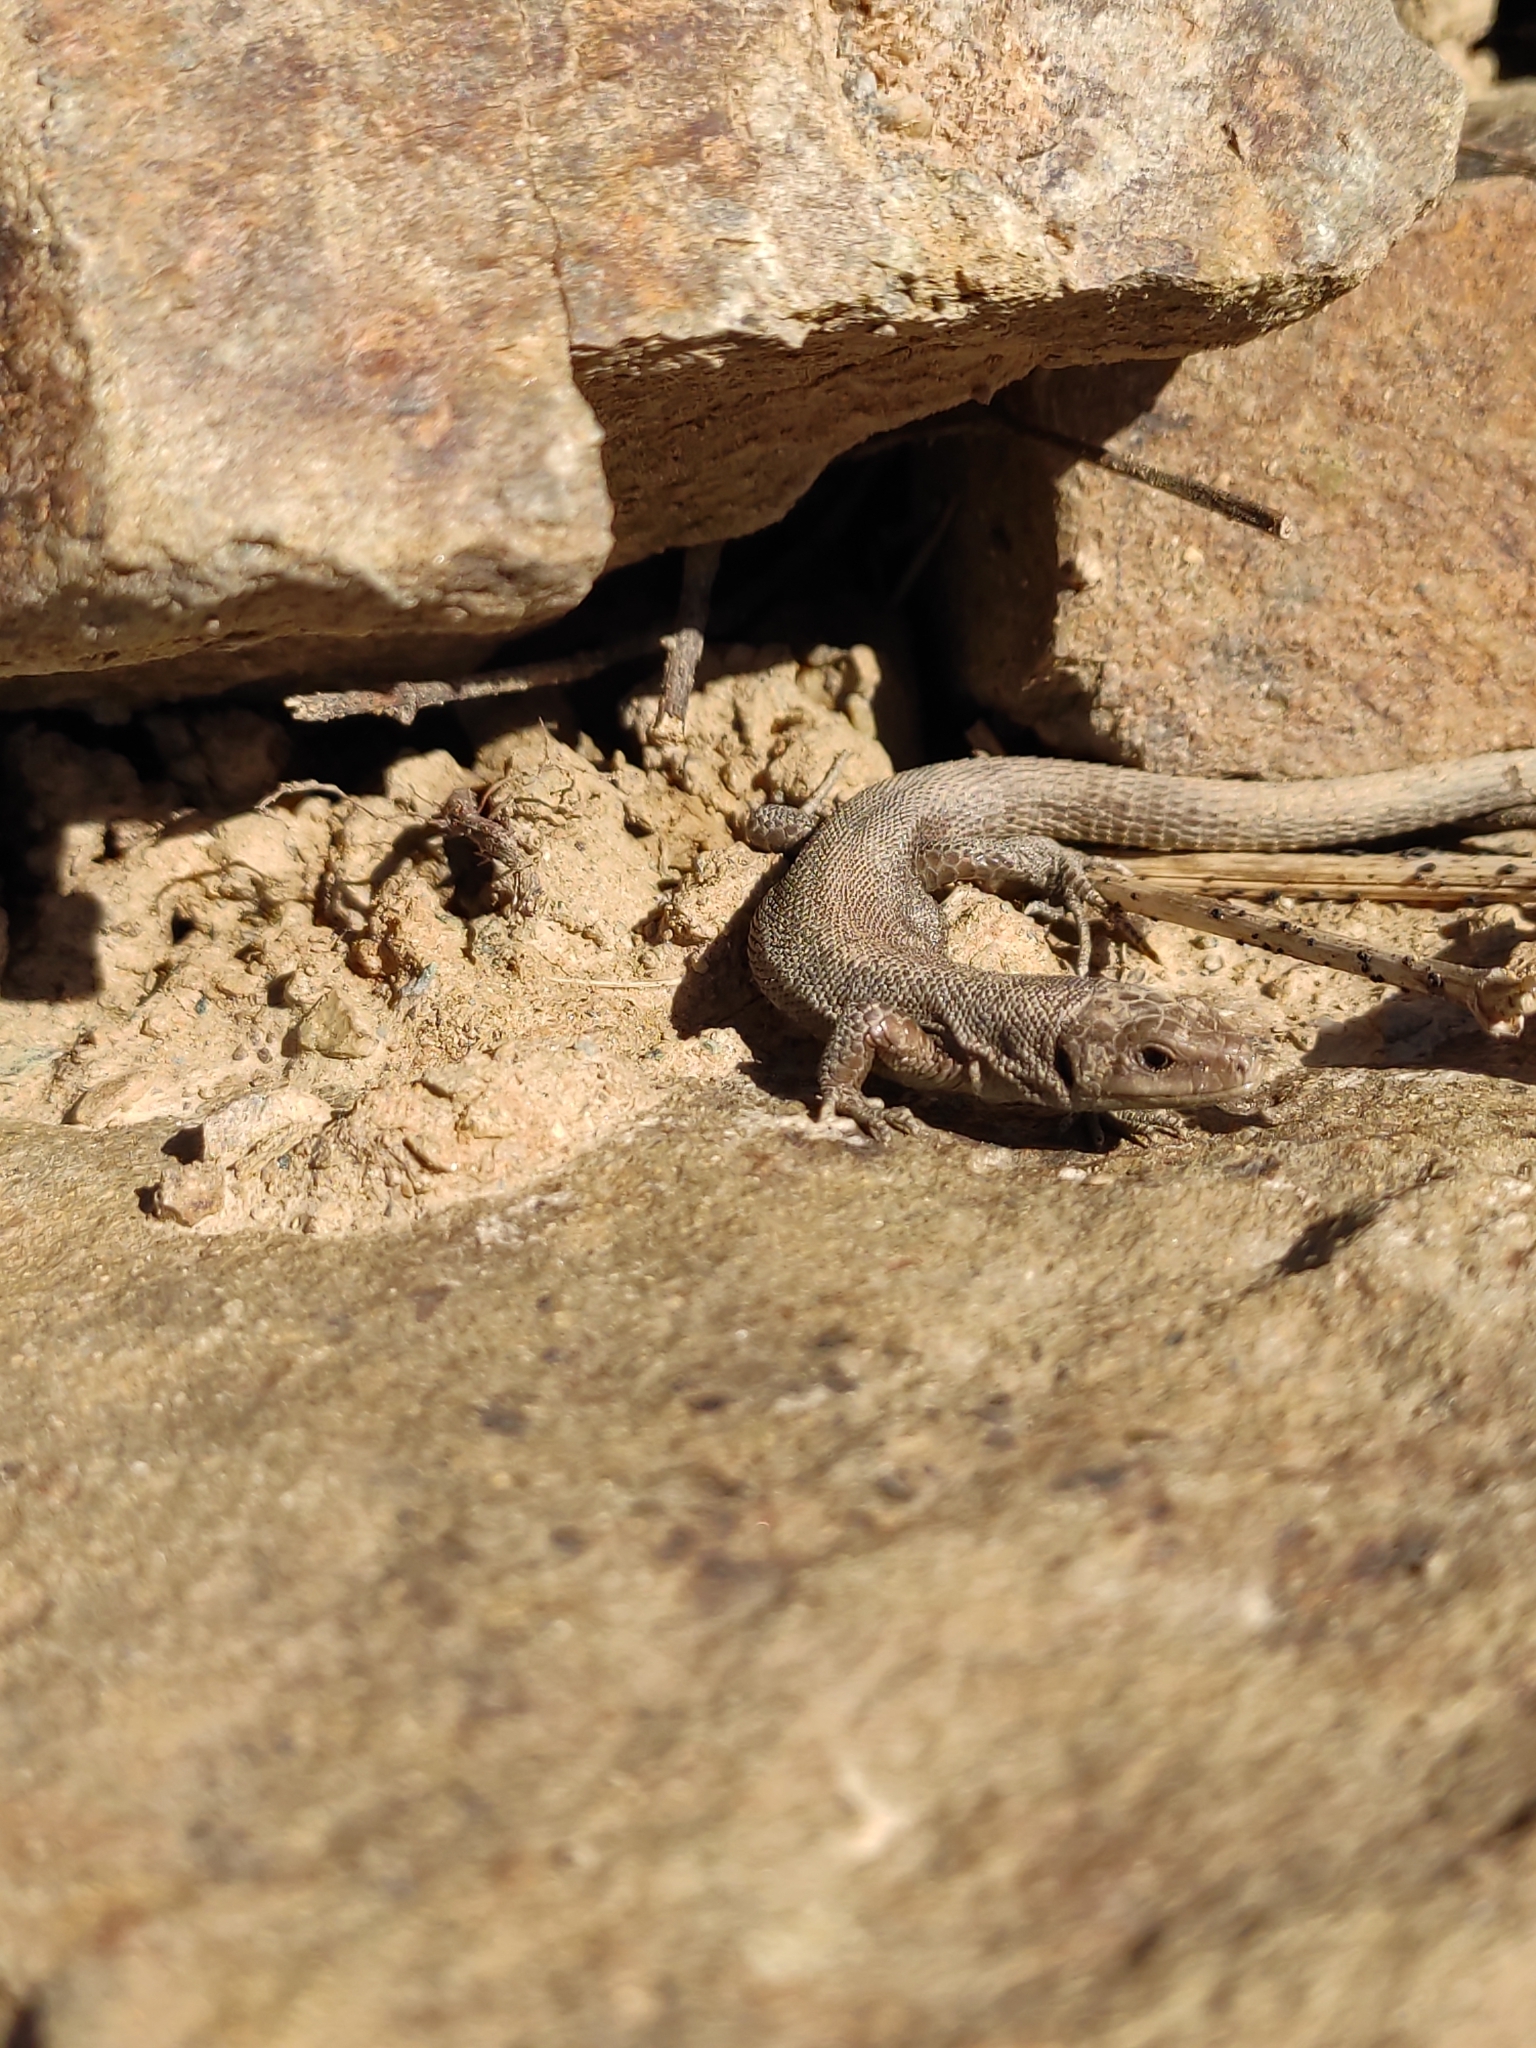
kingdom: Animalia
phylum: Chordata
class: Squamata
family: Lacertidae
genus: Podarcis
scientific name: Podarcis muralis
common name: Common wall lizard
